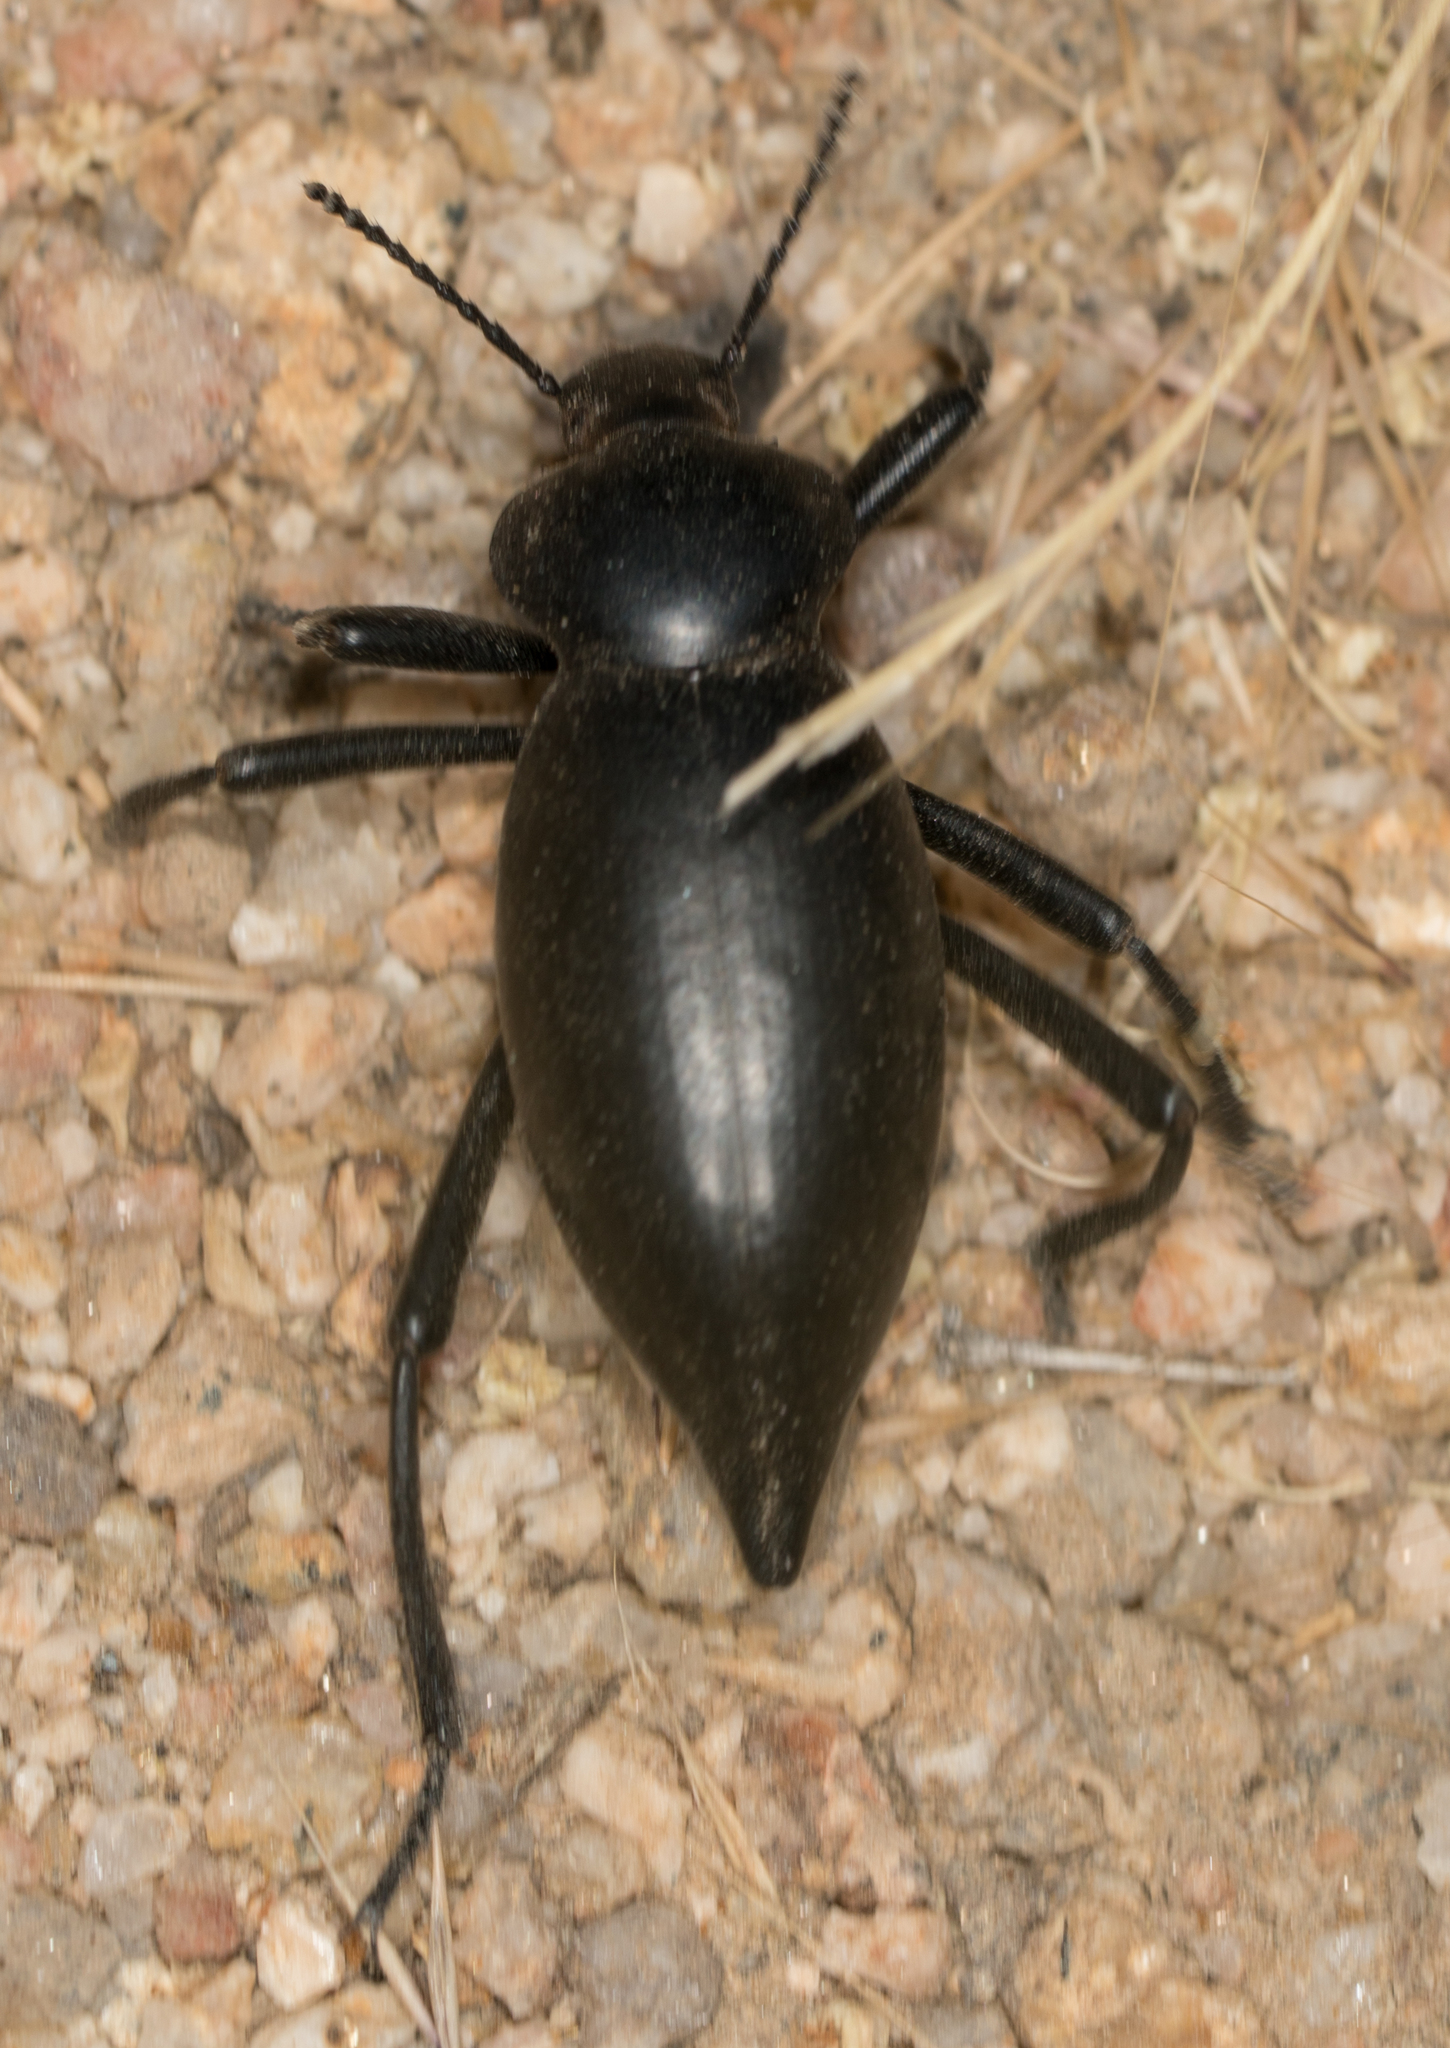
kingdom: Animalia
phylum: Arthropoda
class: Insecta
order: Coleoptera
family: Tenebrionidae
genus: Eleodes
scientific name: Eleodes acuticauda
